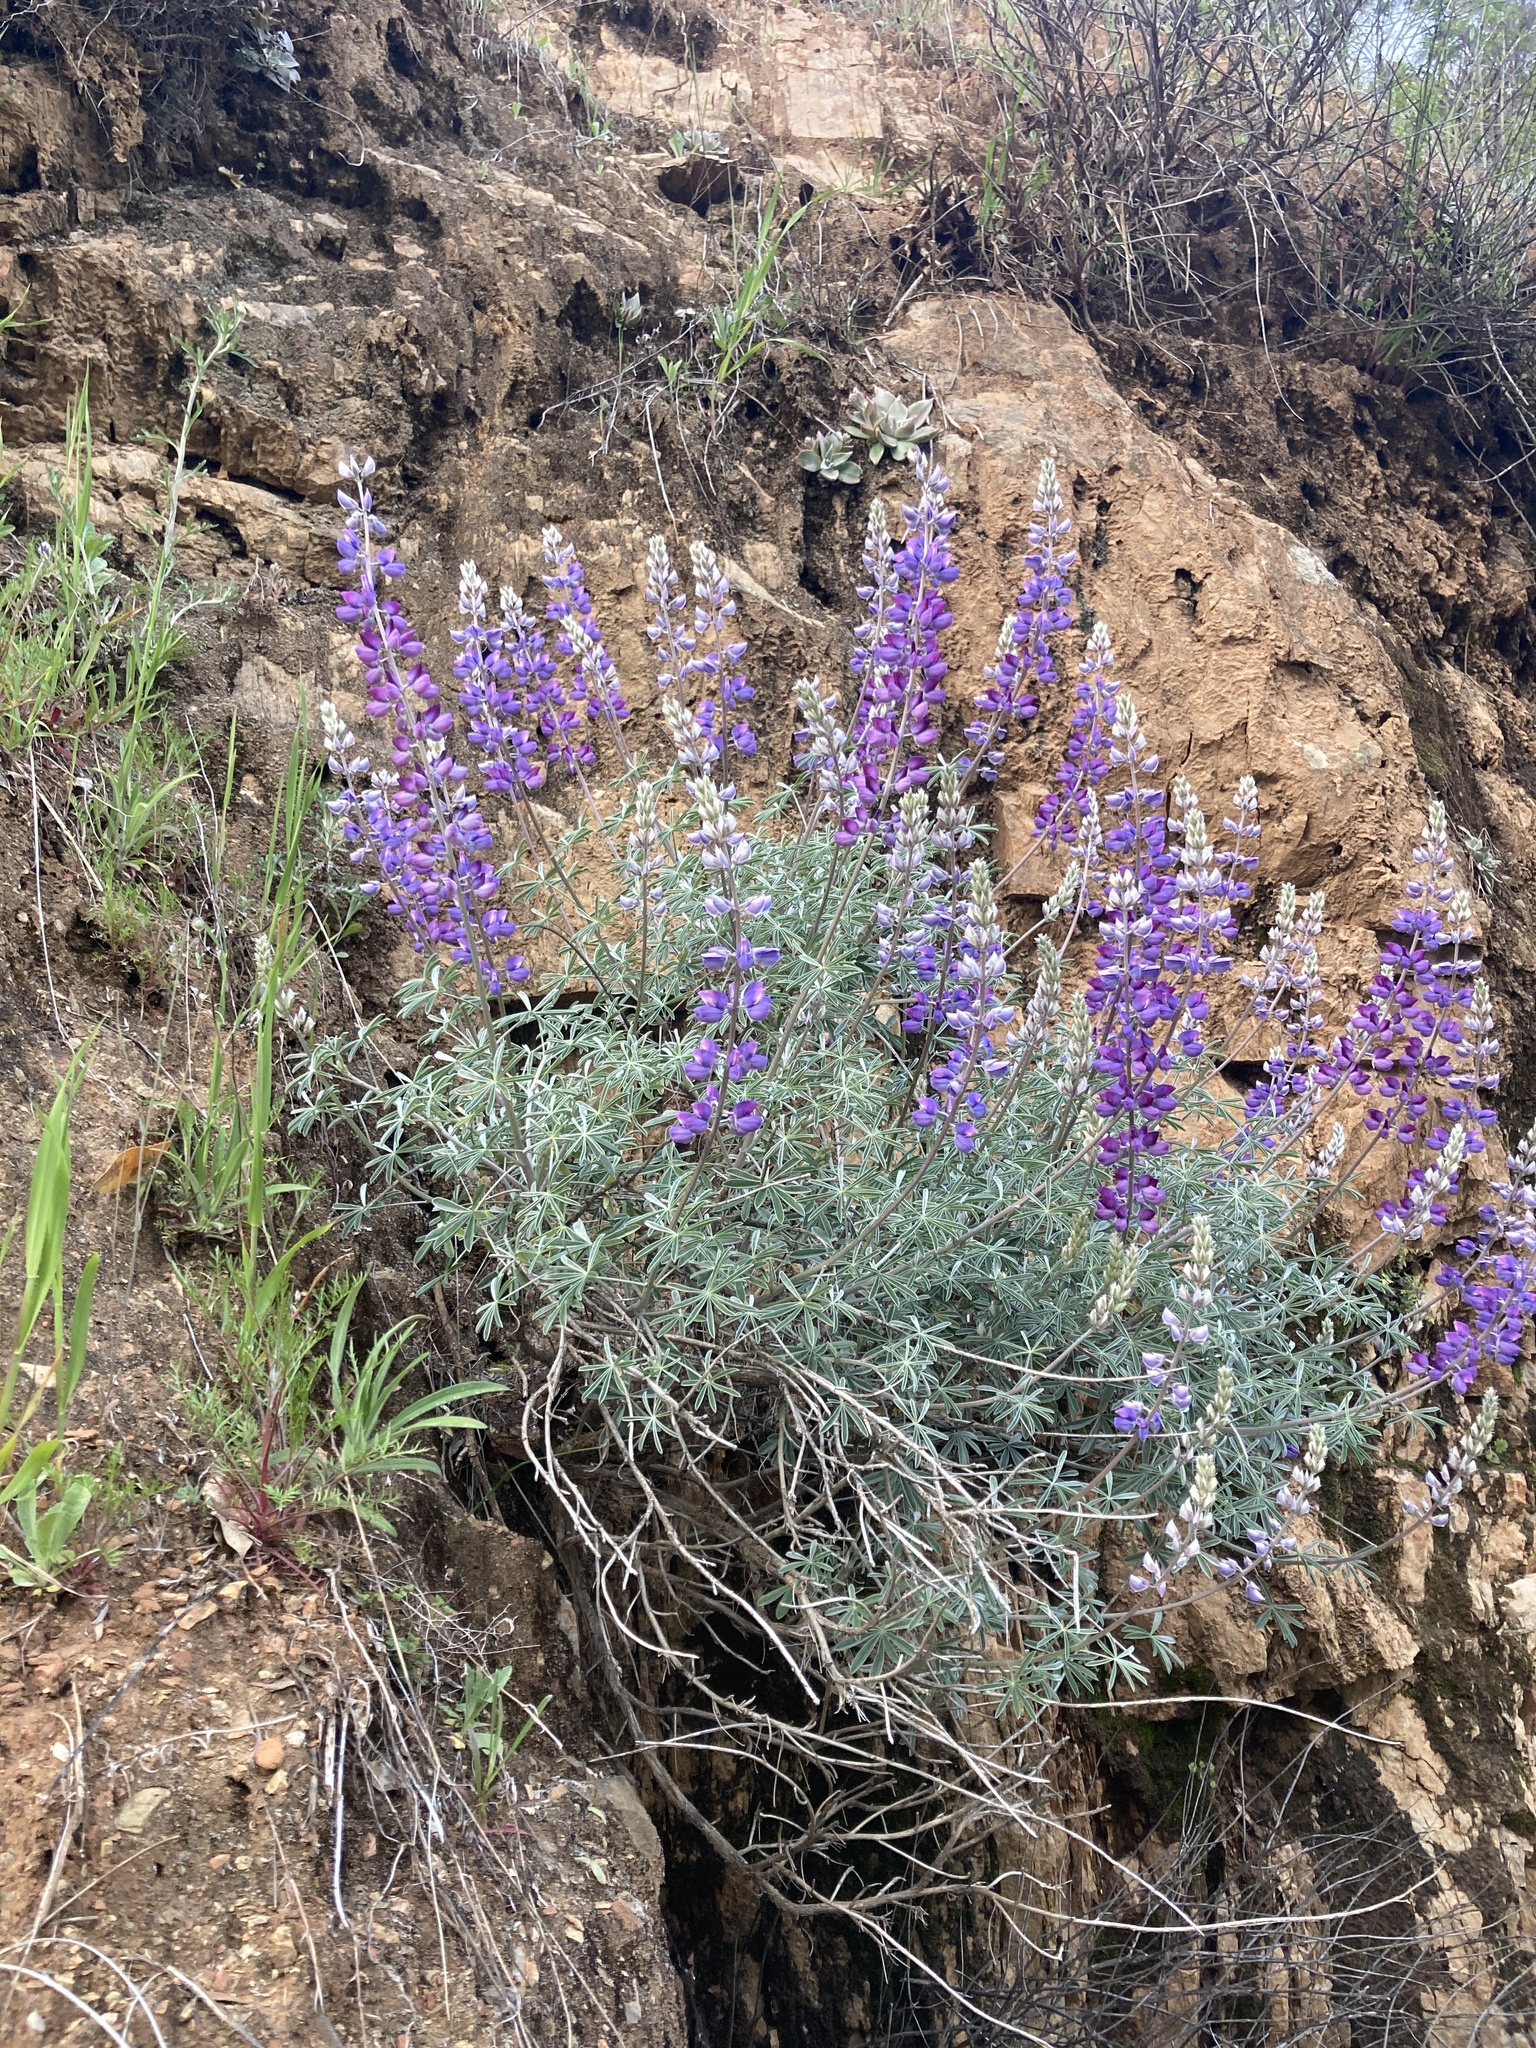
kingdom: Plantae
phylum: Tracheophyta
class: Magnoliopsida
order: Fabales
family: Fabaceae
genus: Lupinus
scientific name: Lupinus albifrons
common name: Foothill lupine
